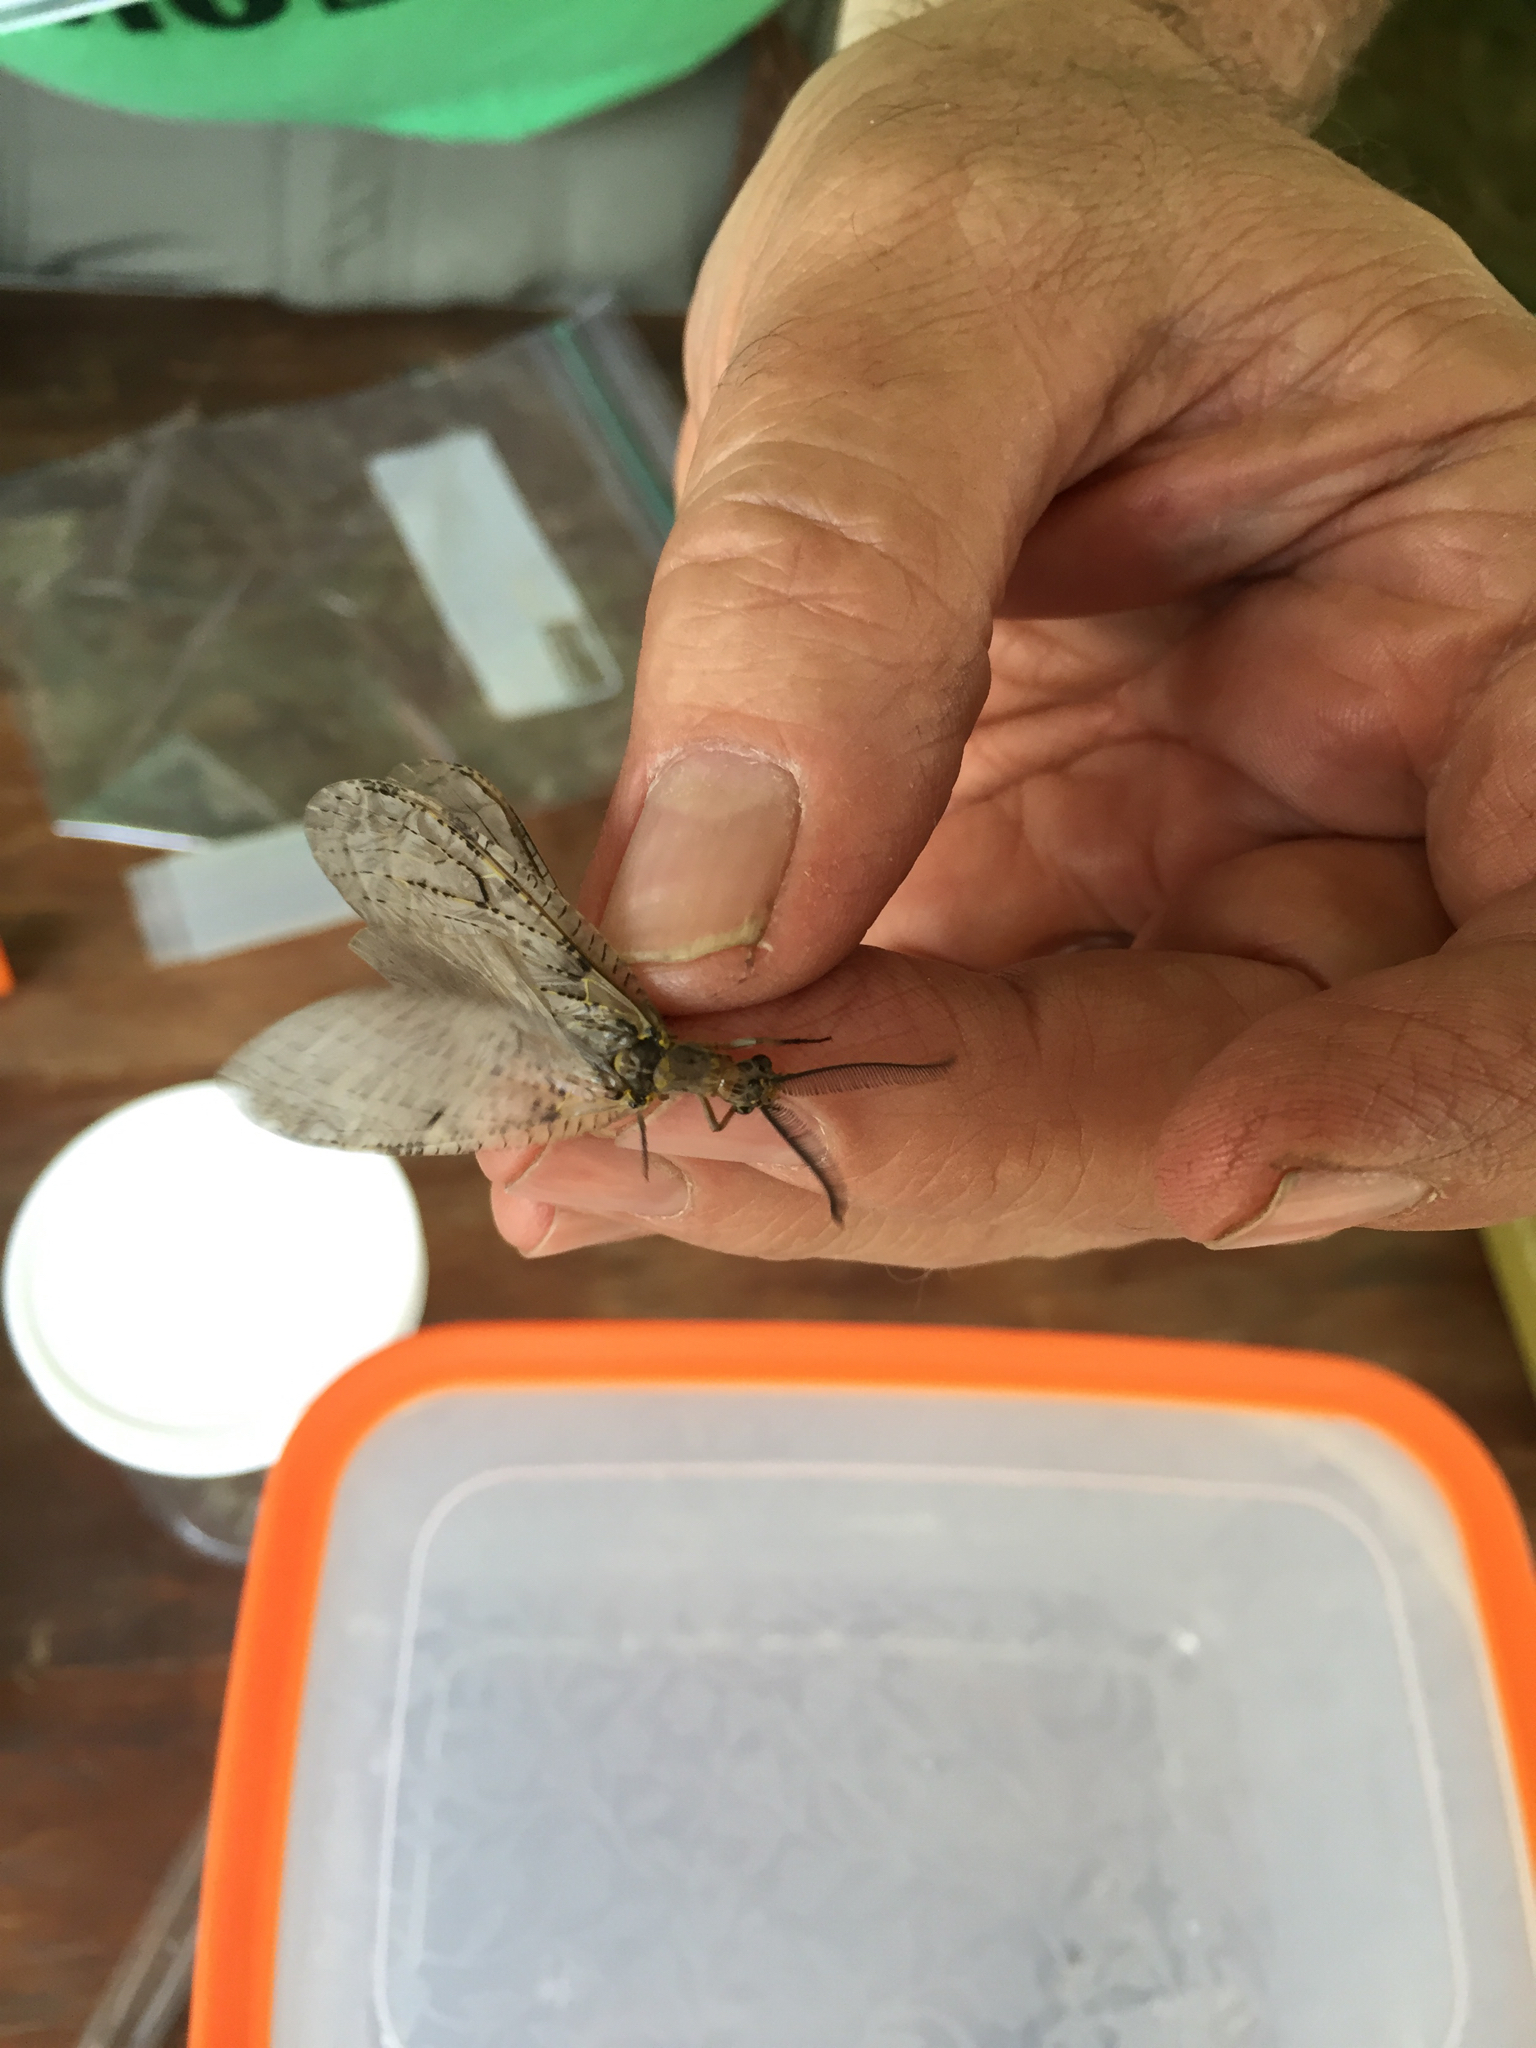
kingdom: Animalia
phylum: Arthropoda
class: Insecta
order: Megaloptera
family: Corydalidae
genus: Chauliodes
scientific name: Chauliodes rastricornis
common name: Spring fishfly
